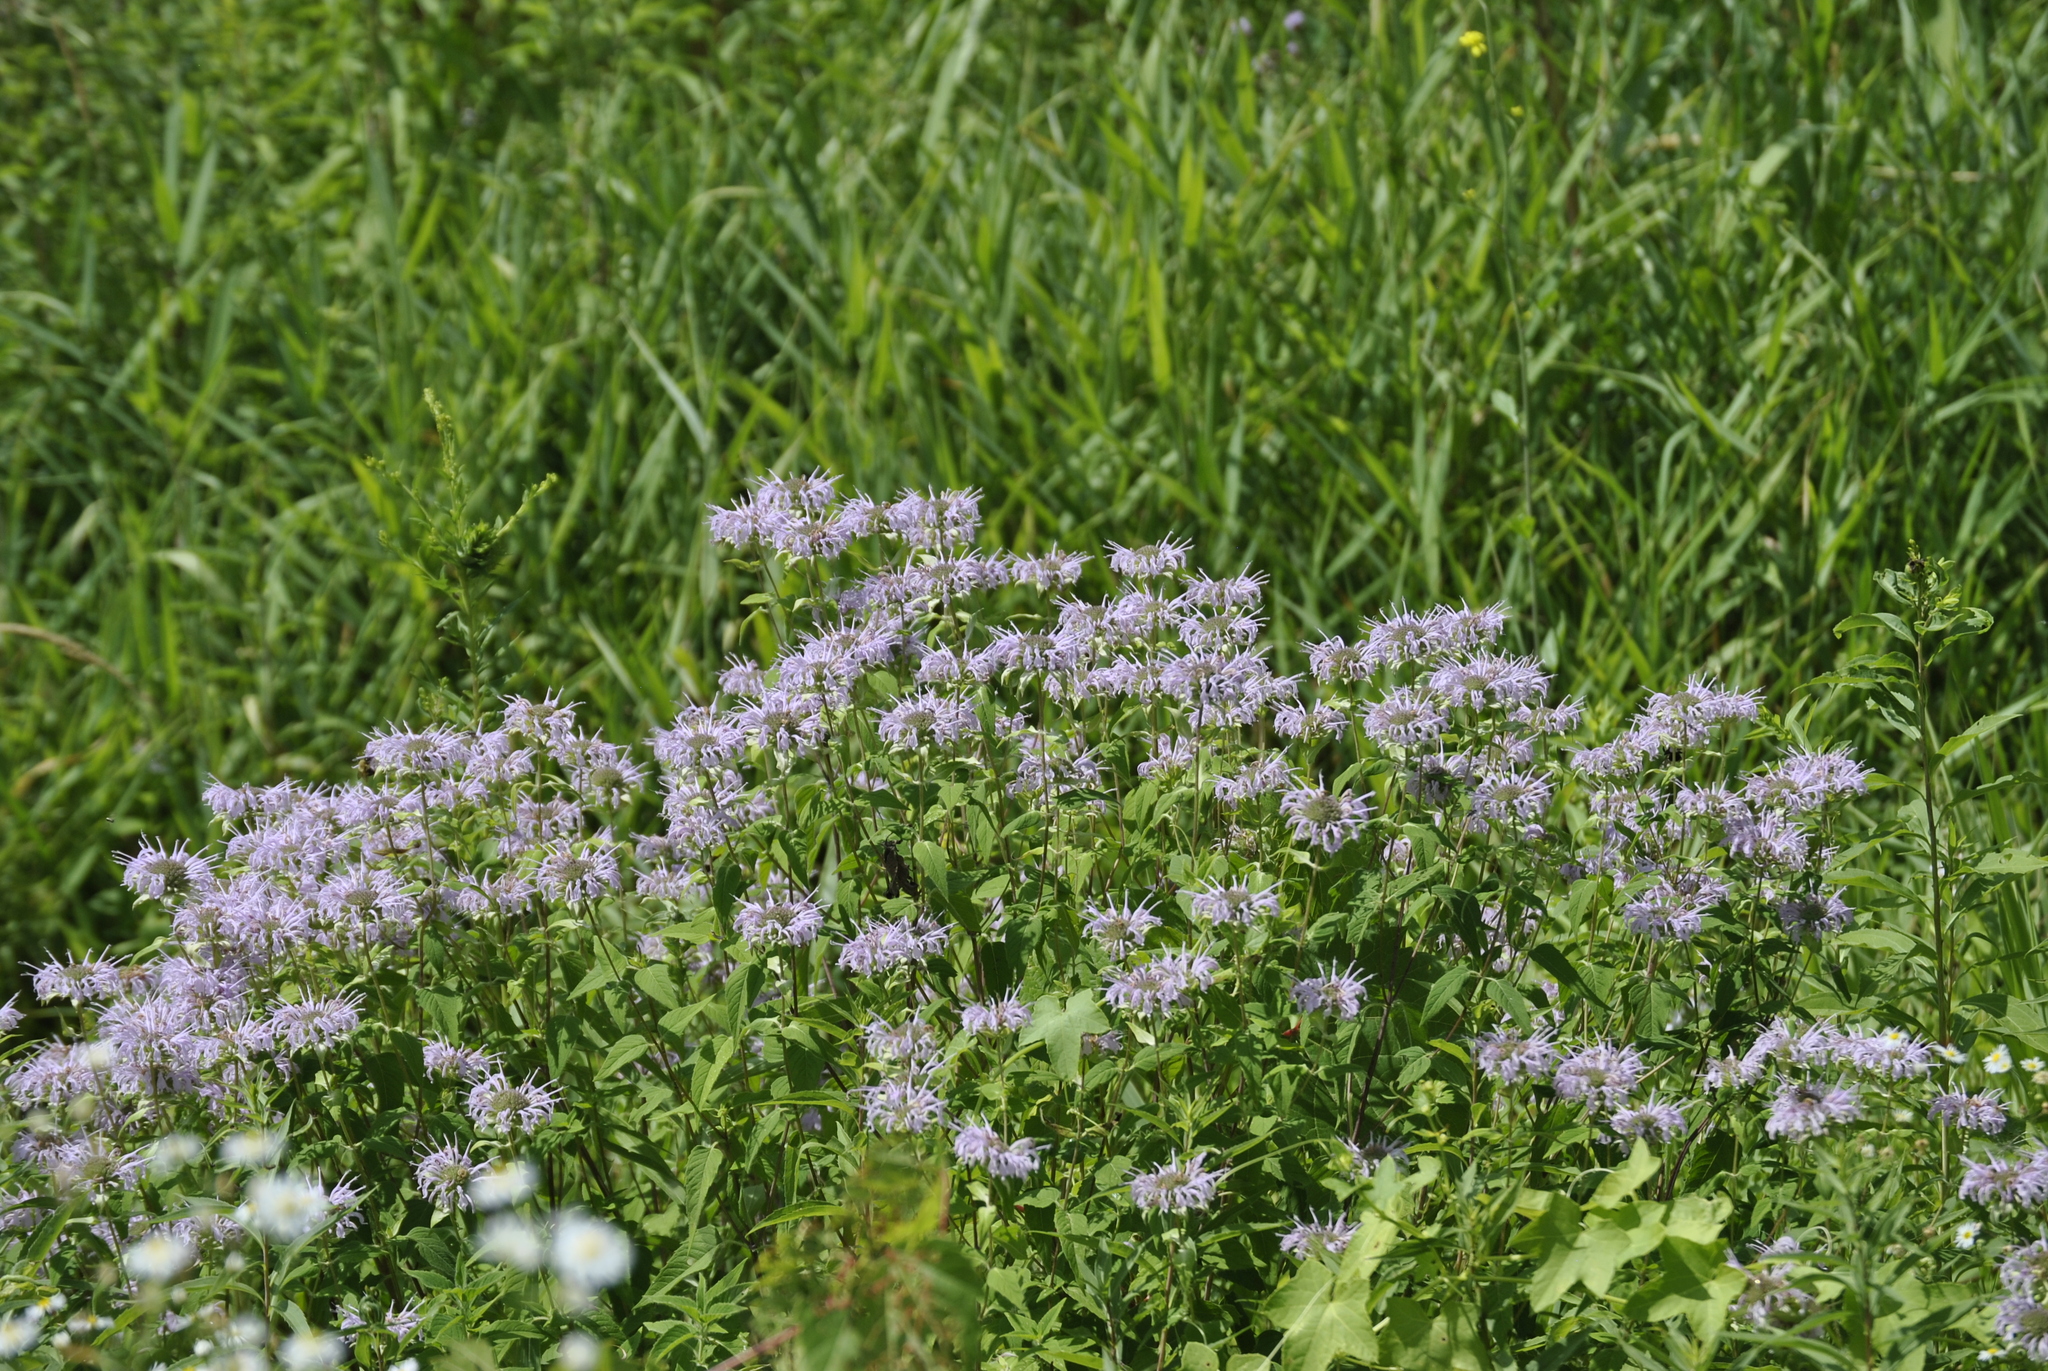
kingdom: Plantae
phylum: Tracheophyta
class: Magnoliopsida
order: Lamiales
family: Lamiaceae
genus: Monarda
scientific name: Monarda fistulosa
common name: Purple beebalm
